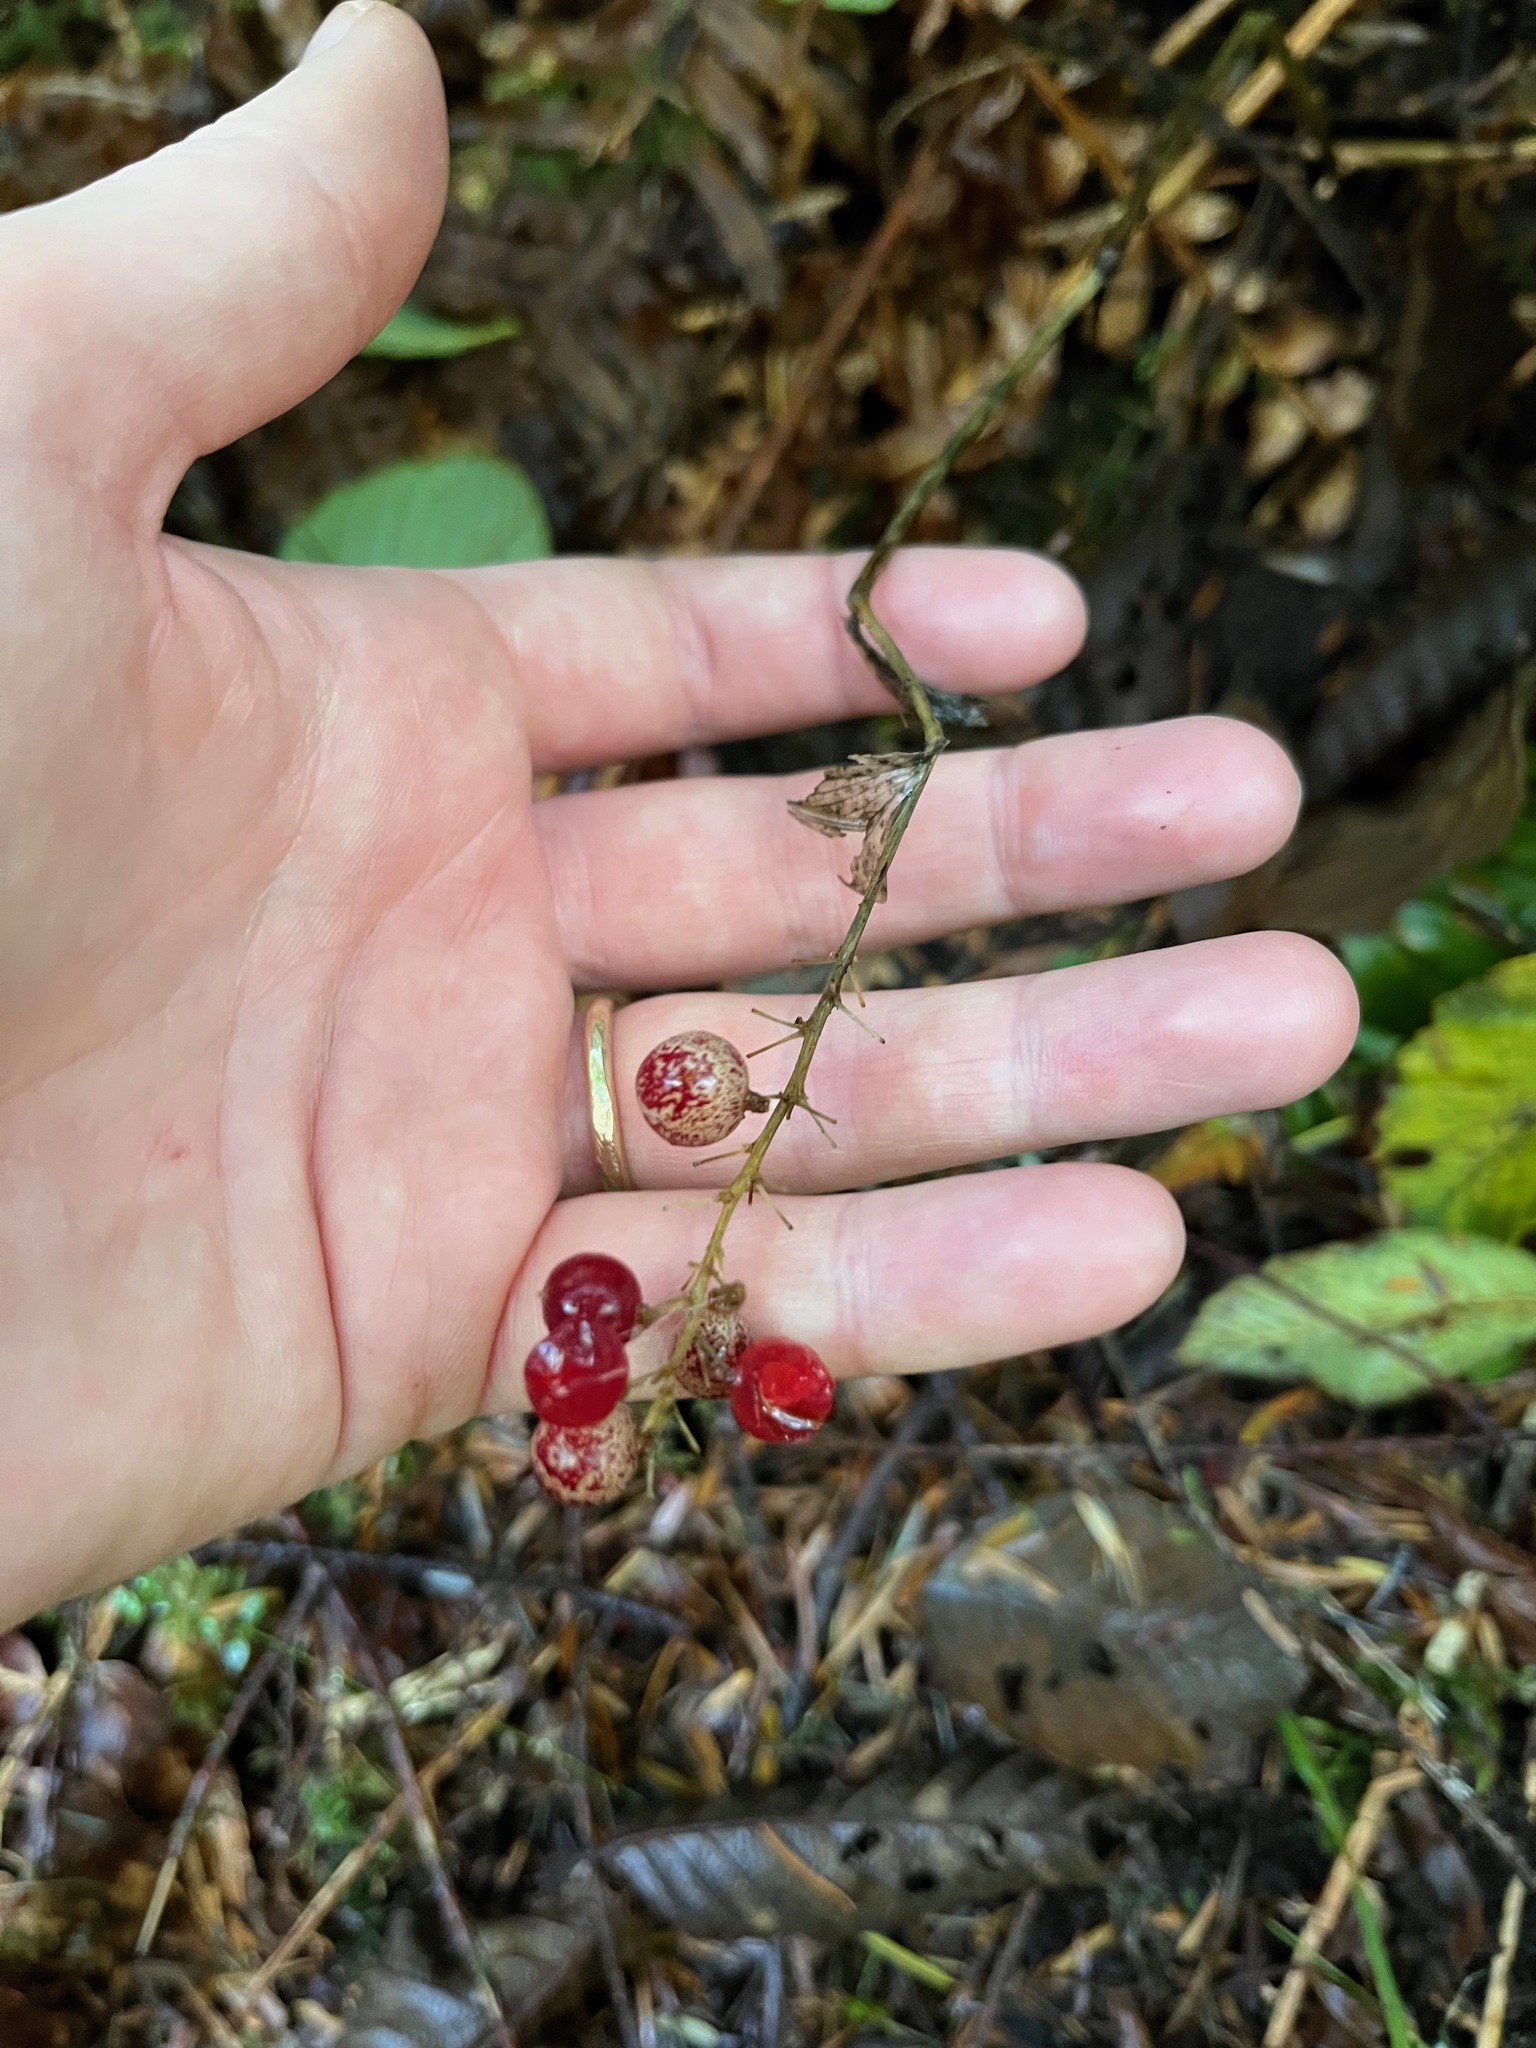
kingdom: Plantae
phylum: Tracheophyta
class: Liliopsida
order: Asparagales
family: Asparagaceae
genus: Maianthemum
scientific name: Maianthemum dilatatum
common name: False lily-of-the-valley
